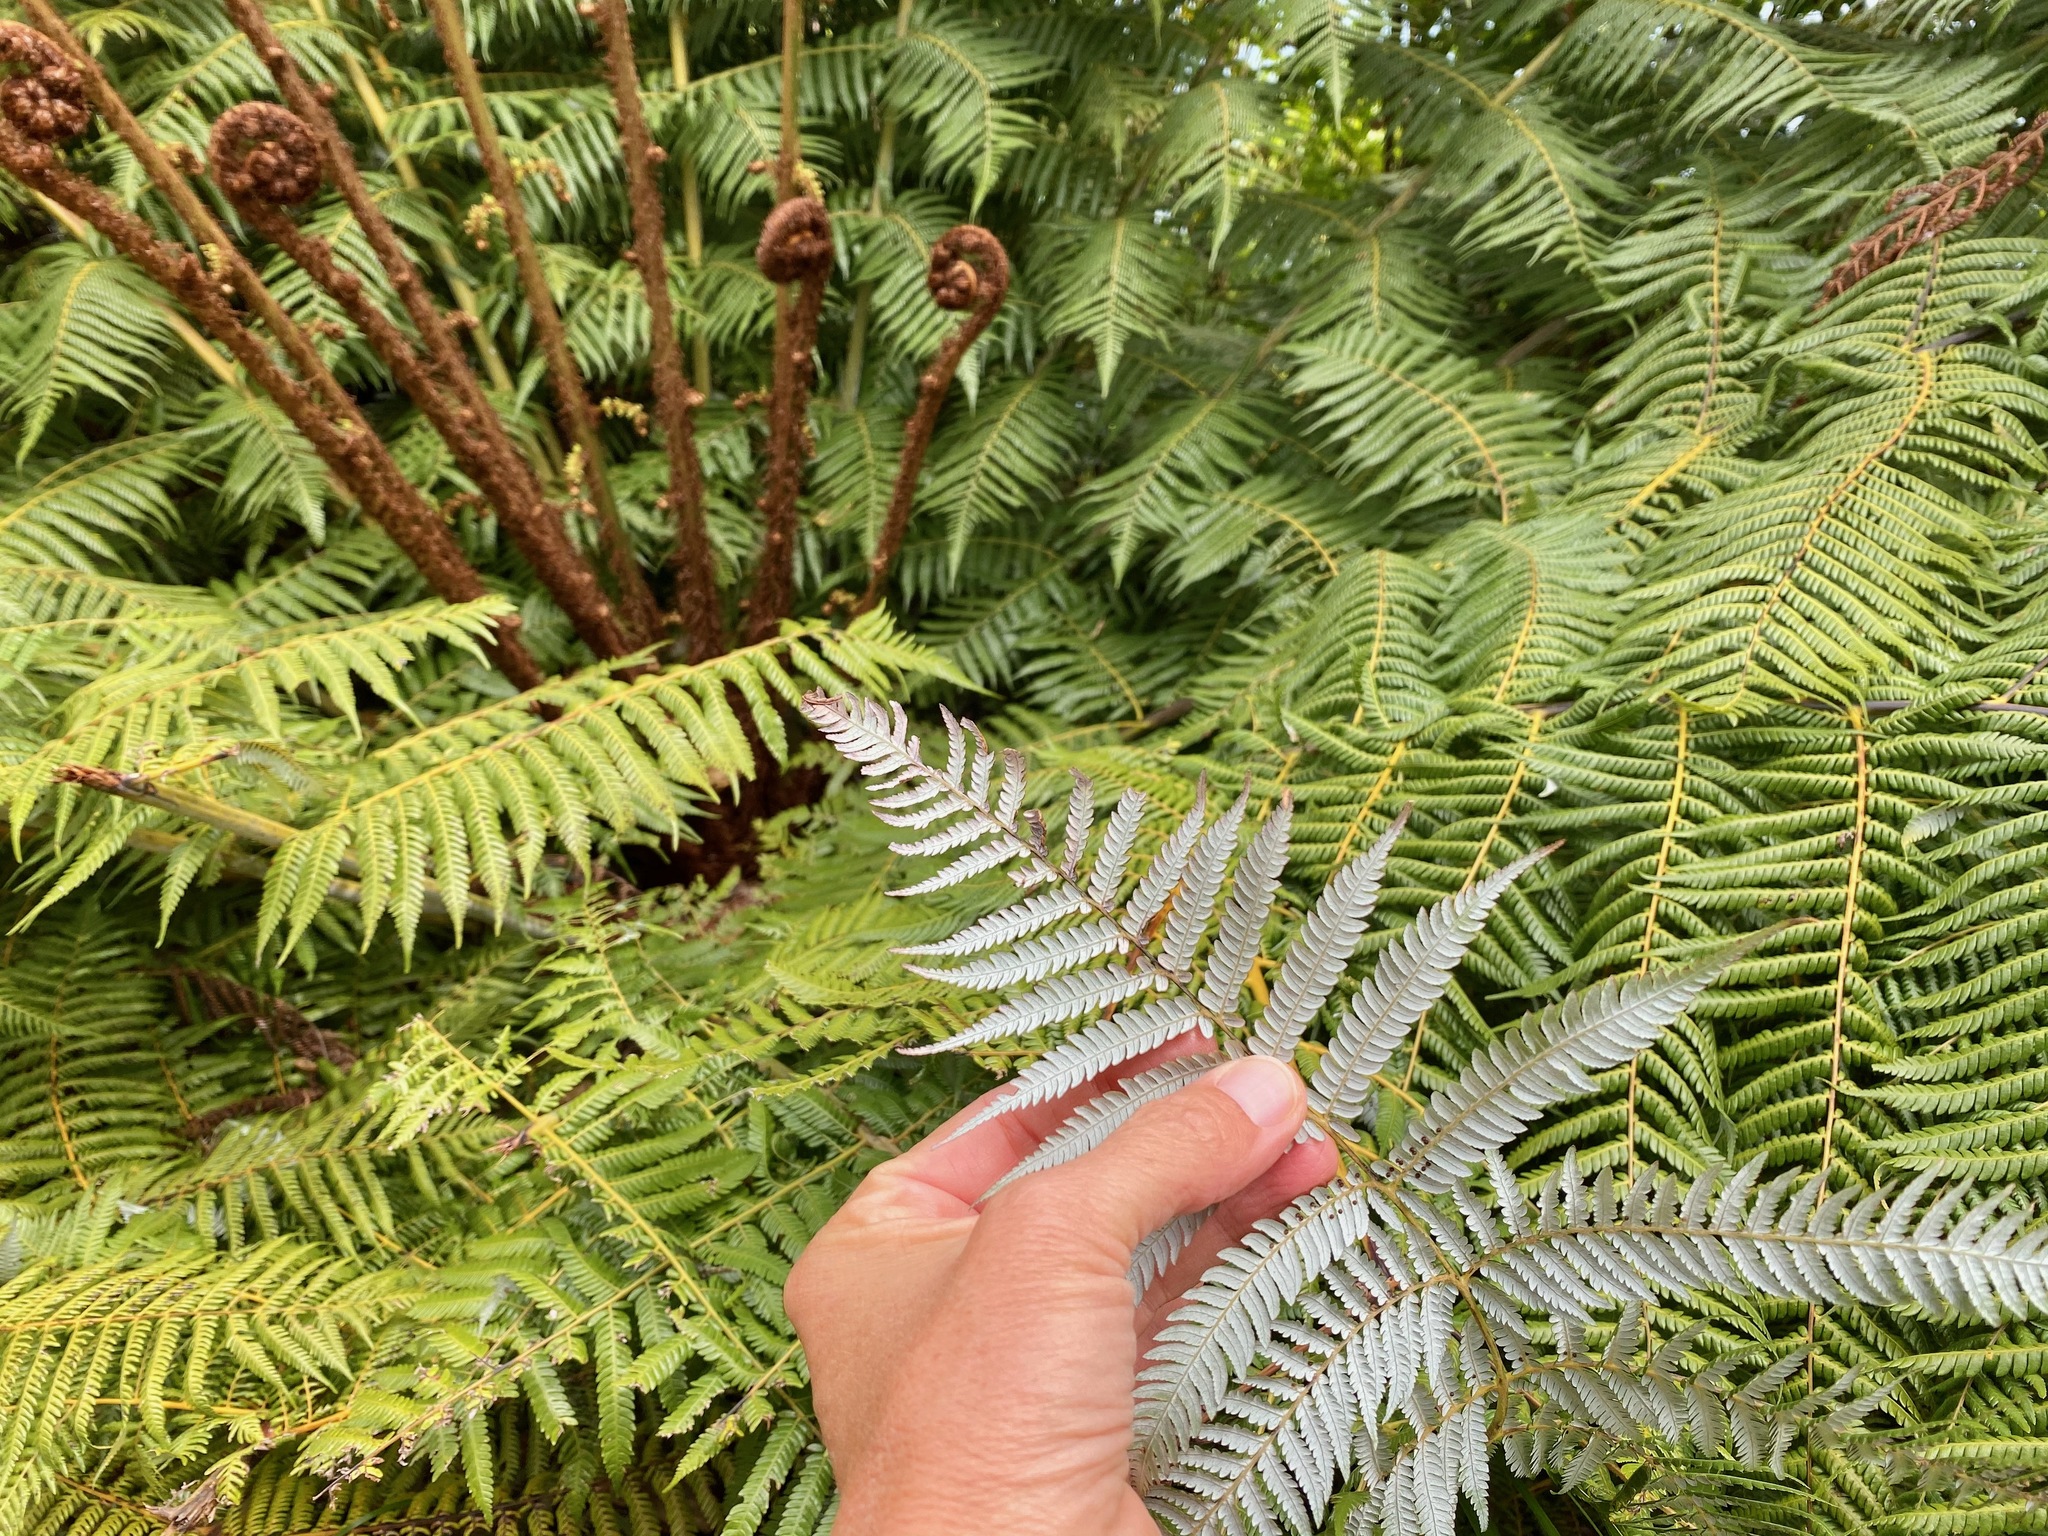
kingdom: Plantae
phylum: Tracheophyta
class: Polypodiopsida
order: Cyatheales
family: Cyatheaceae
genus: Alsophila
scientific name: Alsophila dealbata
